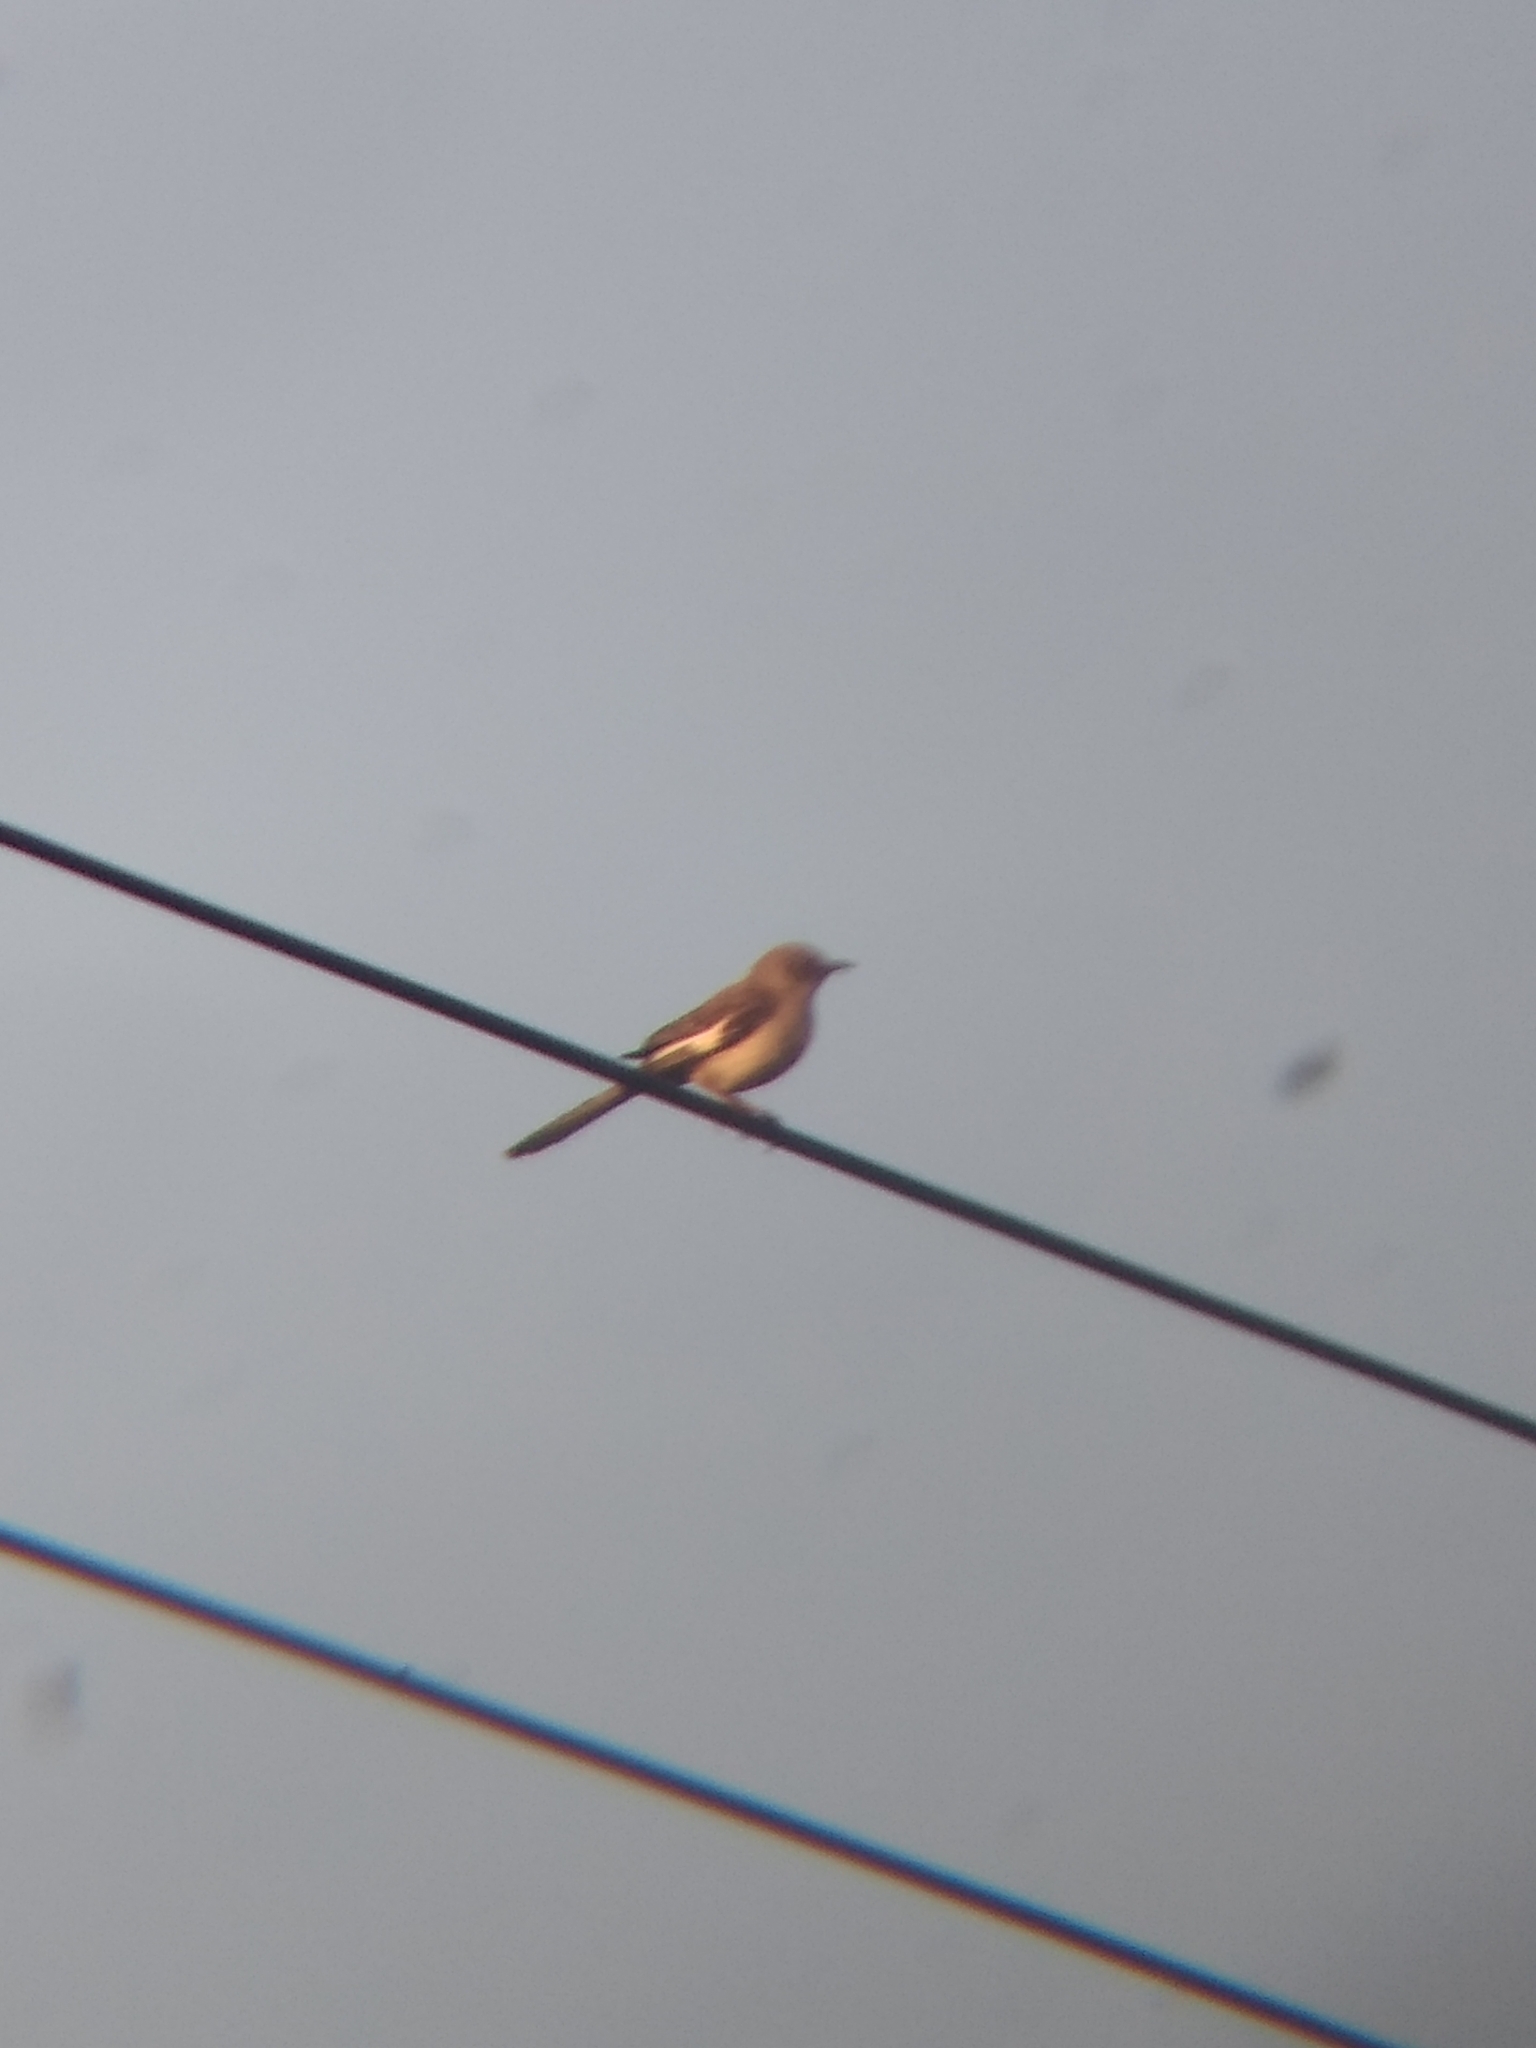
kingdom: Animalia
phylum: Chordata
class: Aves
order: Passeriformes
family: Mimidae
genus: Mimus
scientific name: Mimus polyglottos
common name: Northern mockingbird
